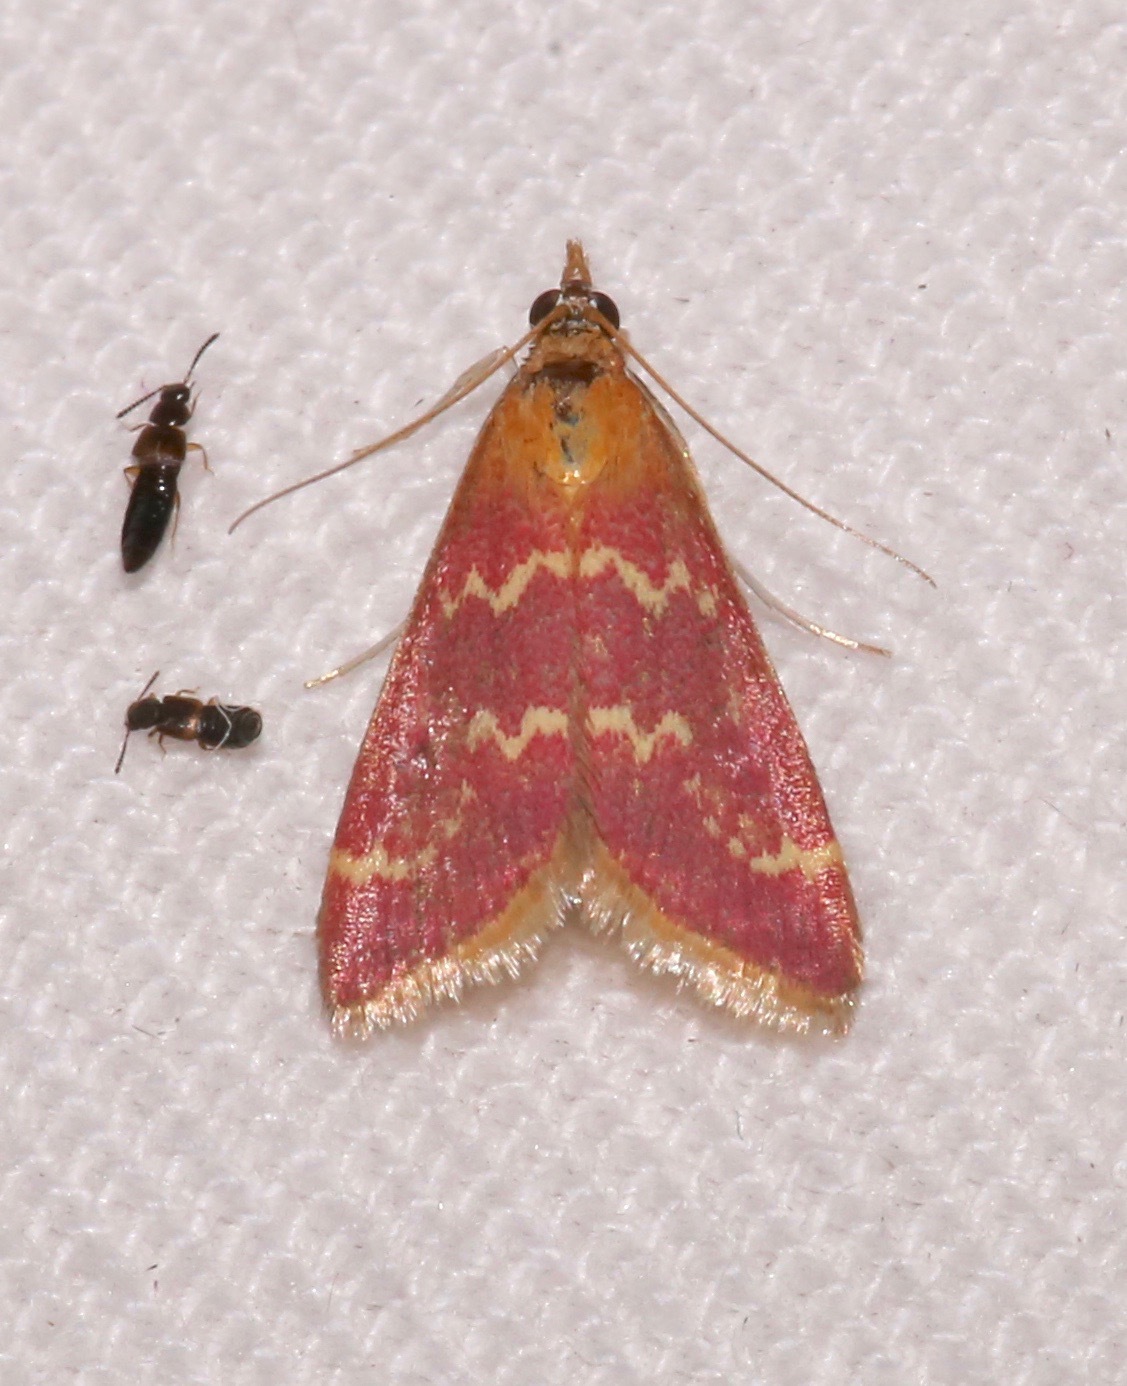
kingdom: Animalia
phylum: Arthropoda
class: Insecta
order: Lepidoptera
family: Crambidae
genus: Pyrausta
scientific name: Pyrausta signatalis
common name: Raspberry pyrausta moth
